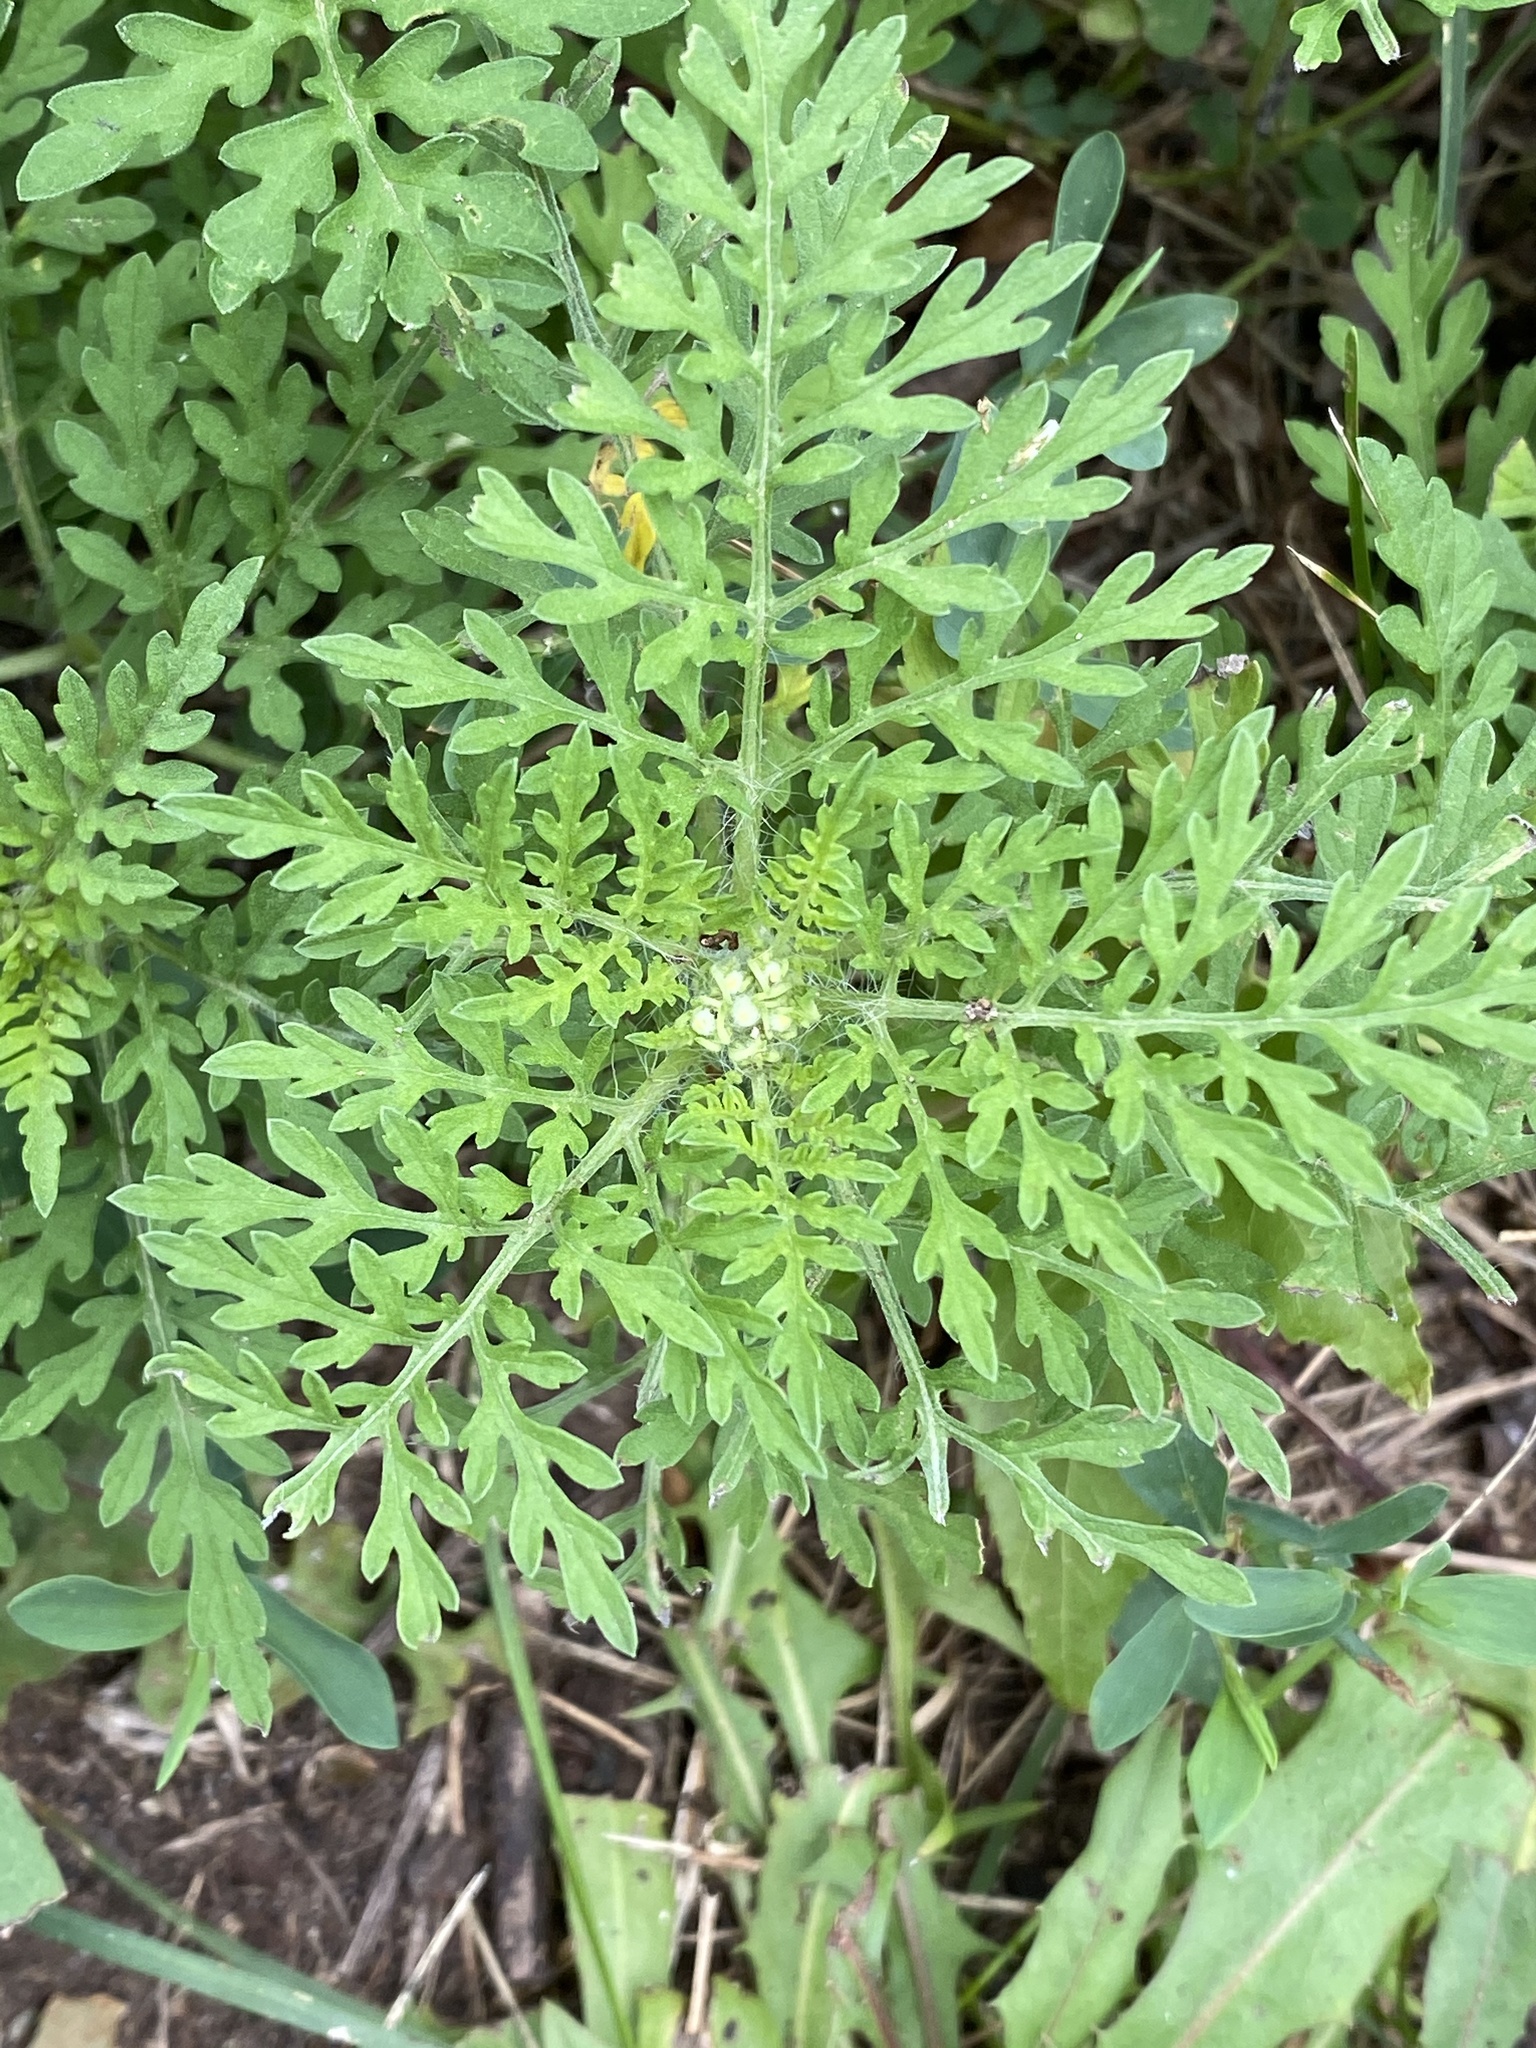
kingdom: Plantae
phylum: Tracheophyta
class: Magnoliopsida
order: Asterales
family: Asteraceae
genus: Ambrosia
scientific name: Ambrosia artemisiifolia
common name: Annual ragweed
